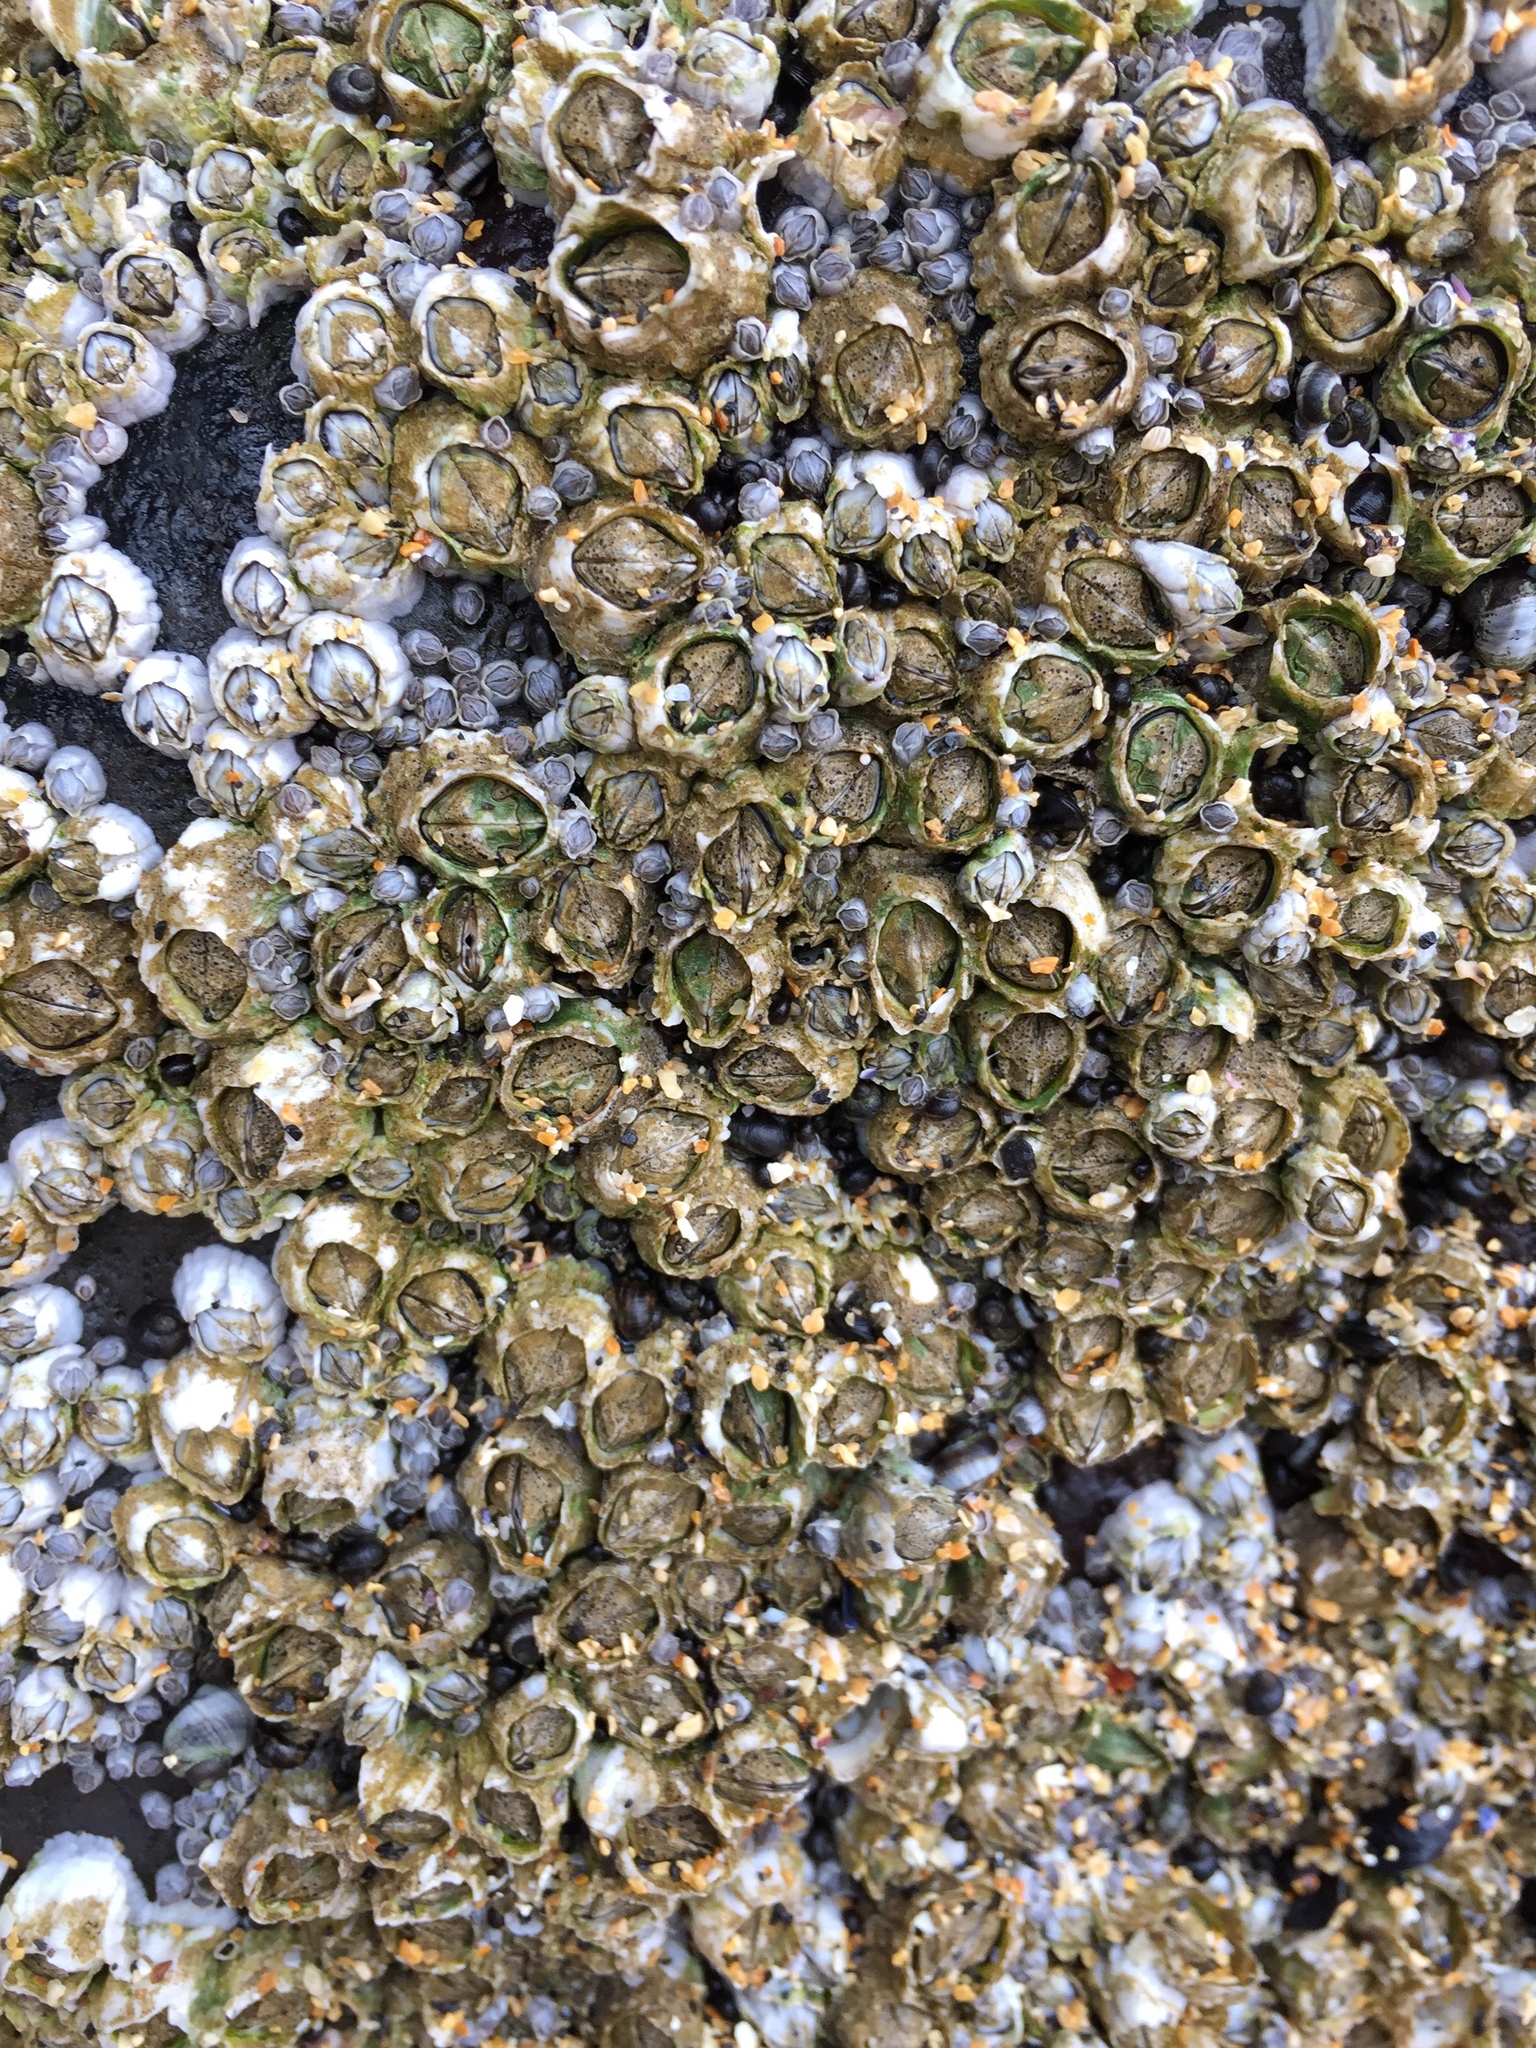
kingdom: Animalia
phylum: Arthropoda
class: Maxillopoda
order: Sessilia
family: Archaeobalanidae
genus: Semibalanus
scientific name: Semibalanus balanoides
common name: Acorn barnacle
